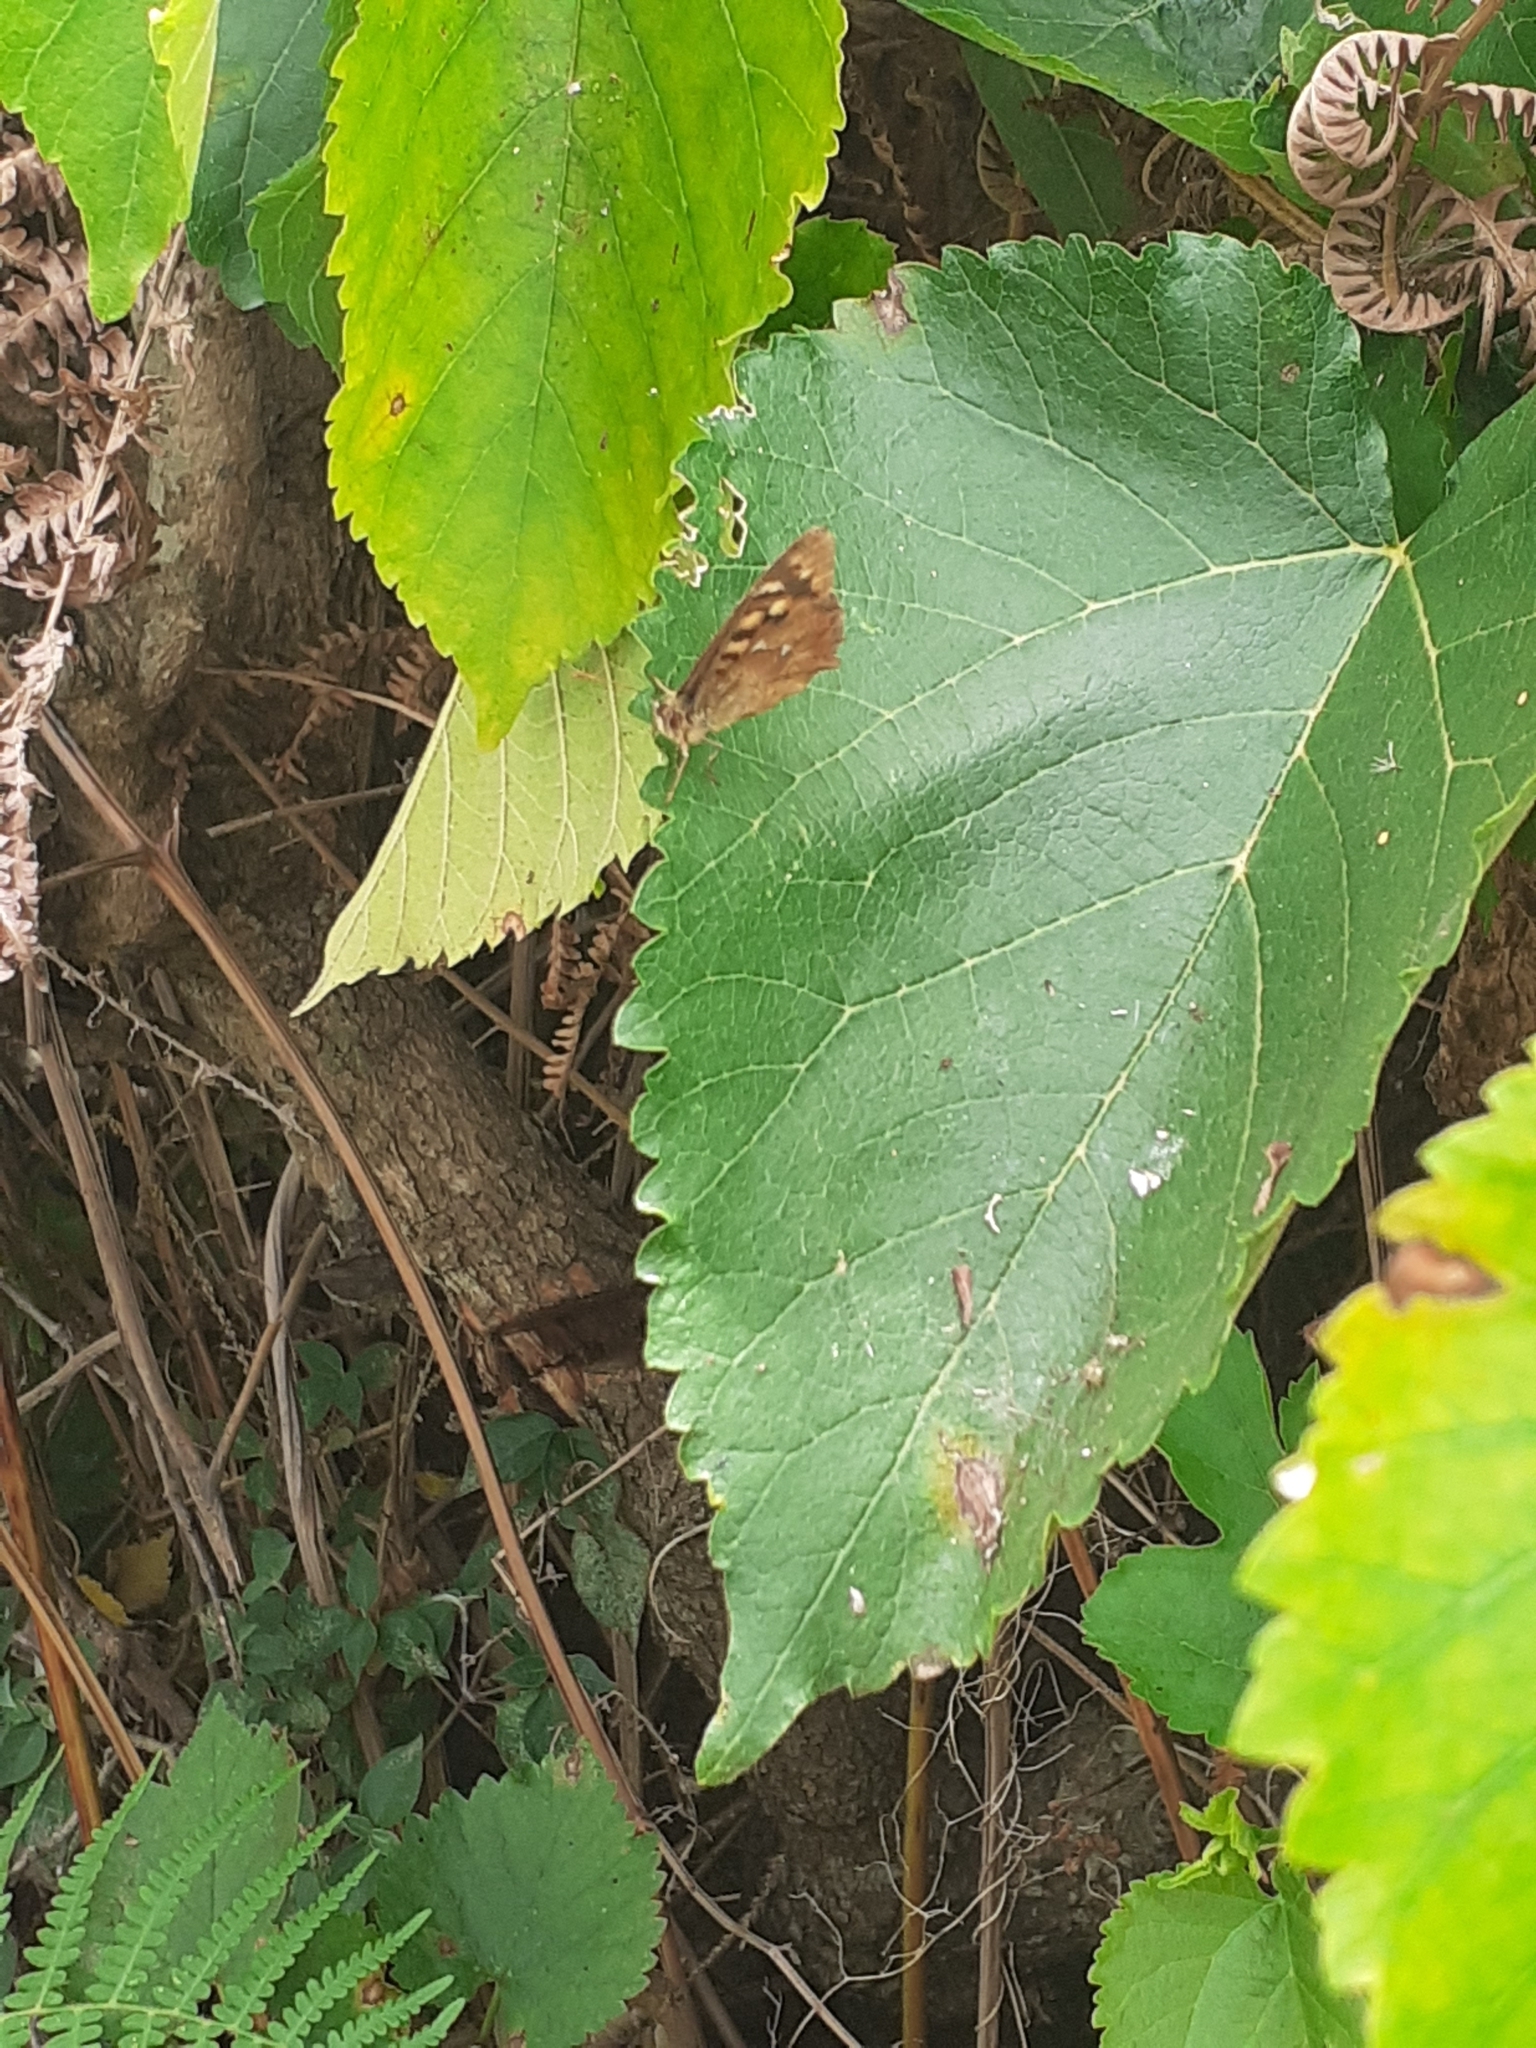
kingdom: Animalia
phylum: Arthropoda
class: Insecta
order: Lepidoptera
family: Nymphalidae
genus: Pararge
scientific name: Pararge aegeria
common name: Speckled wood
